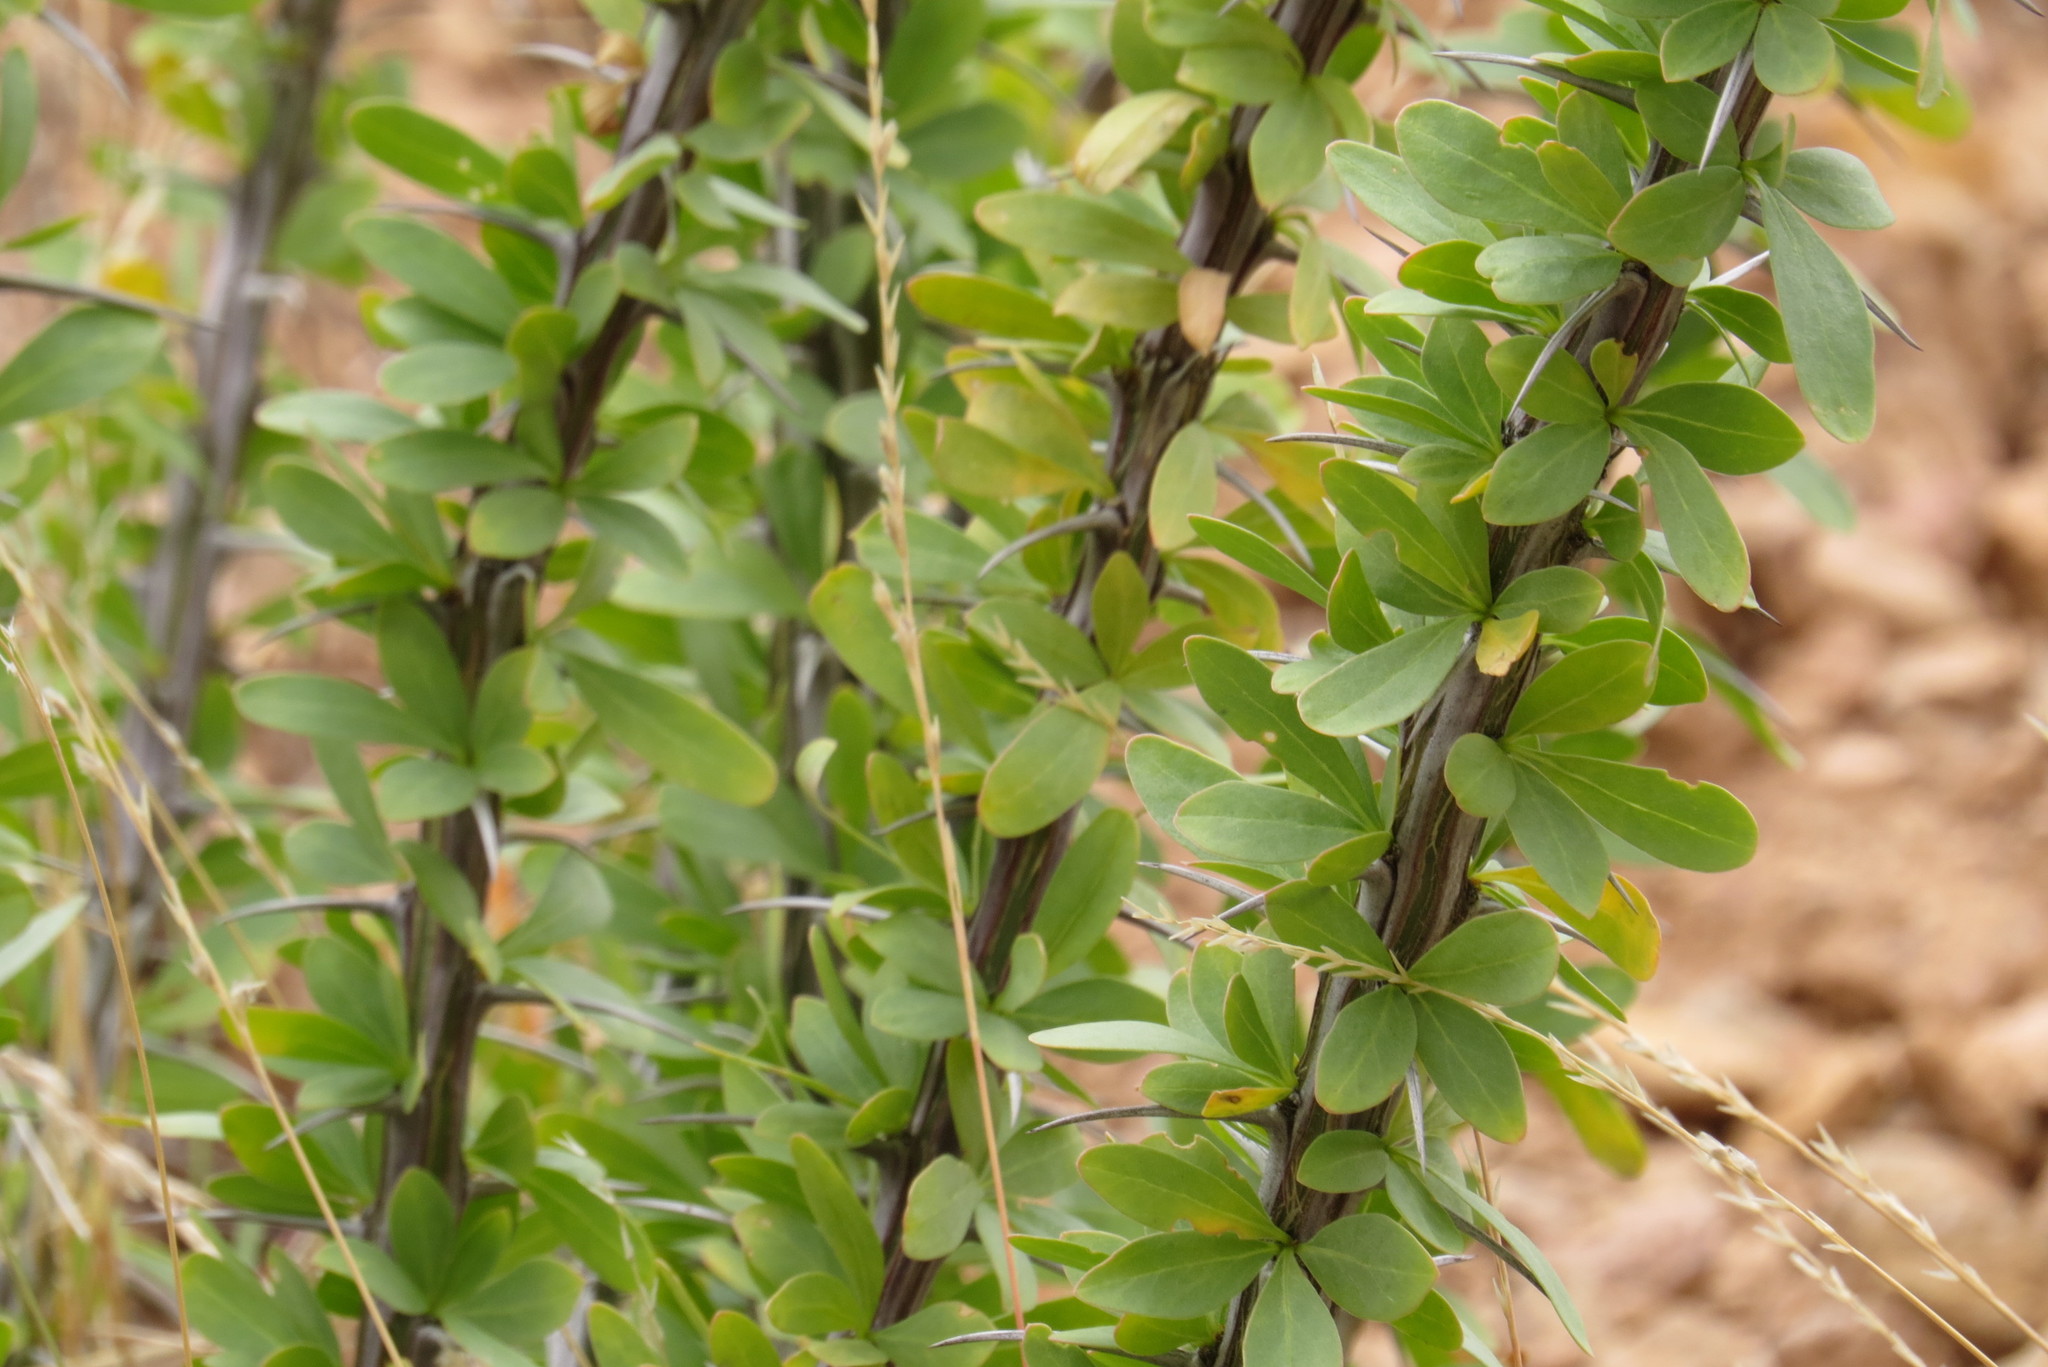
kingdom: Plantae
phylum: Tracheophyta
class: Magnoliopsida
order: Ericales
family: Fouquieriaceae
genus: Fouquieria
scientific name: Fouquieria splendens
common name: Vine-cactus
